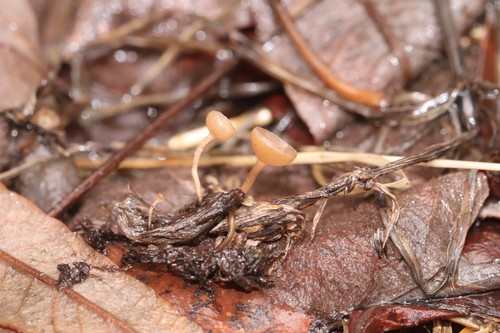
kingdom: Fungi
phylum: Ascomycota
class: Leotiomycetes
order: Helotiales
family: Sclerotiniaceae
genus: Ciboria
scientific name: Ciboria caucus
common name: Alder goblet
